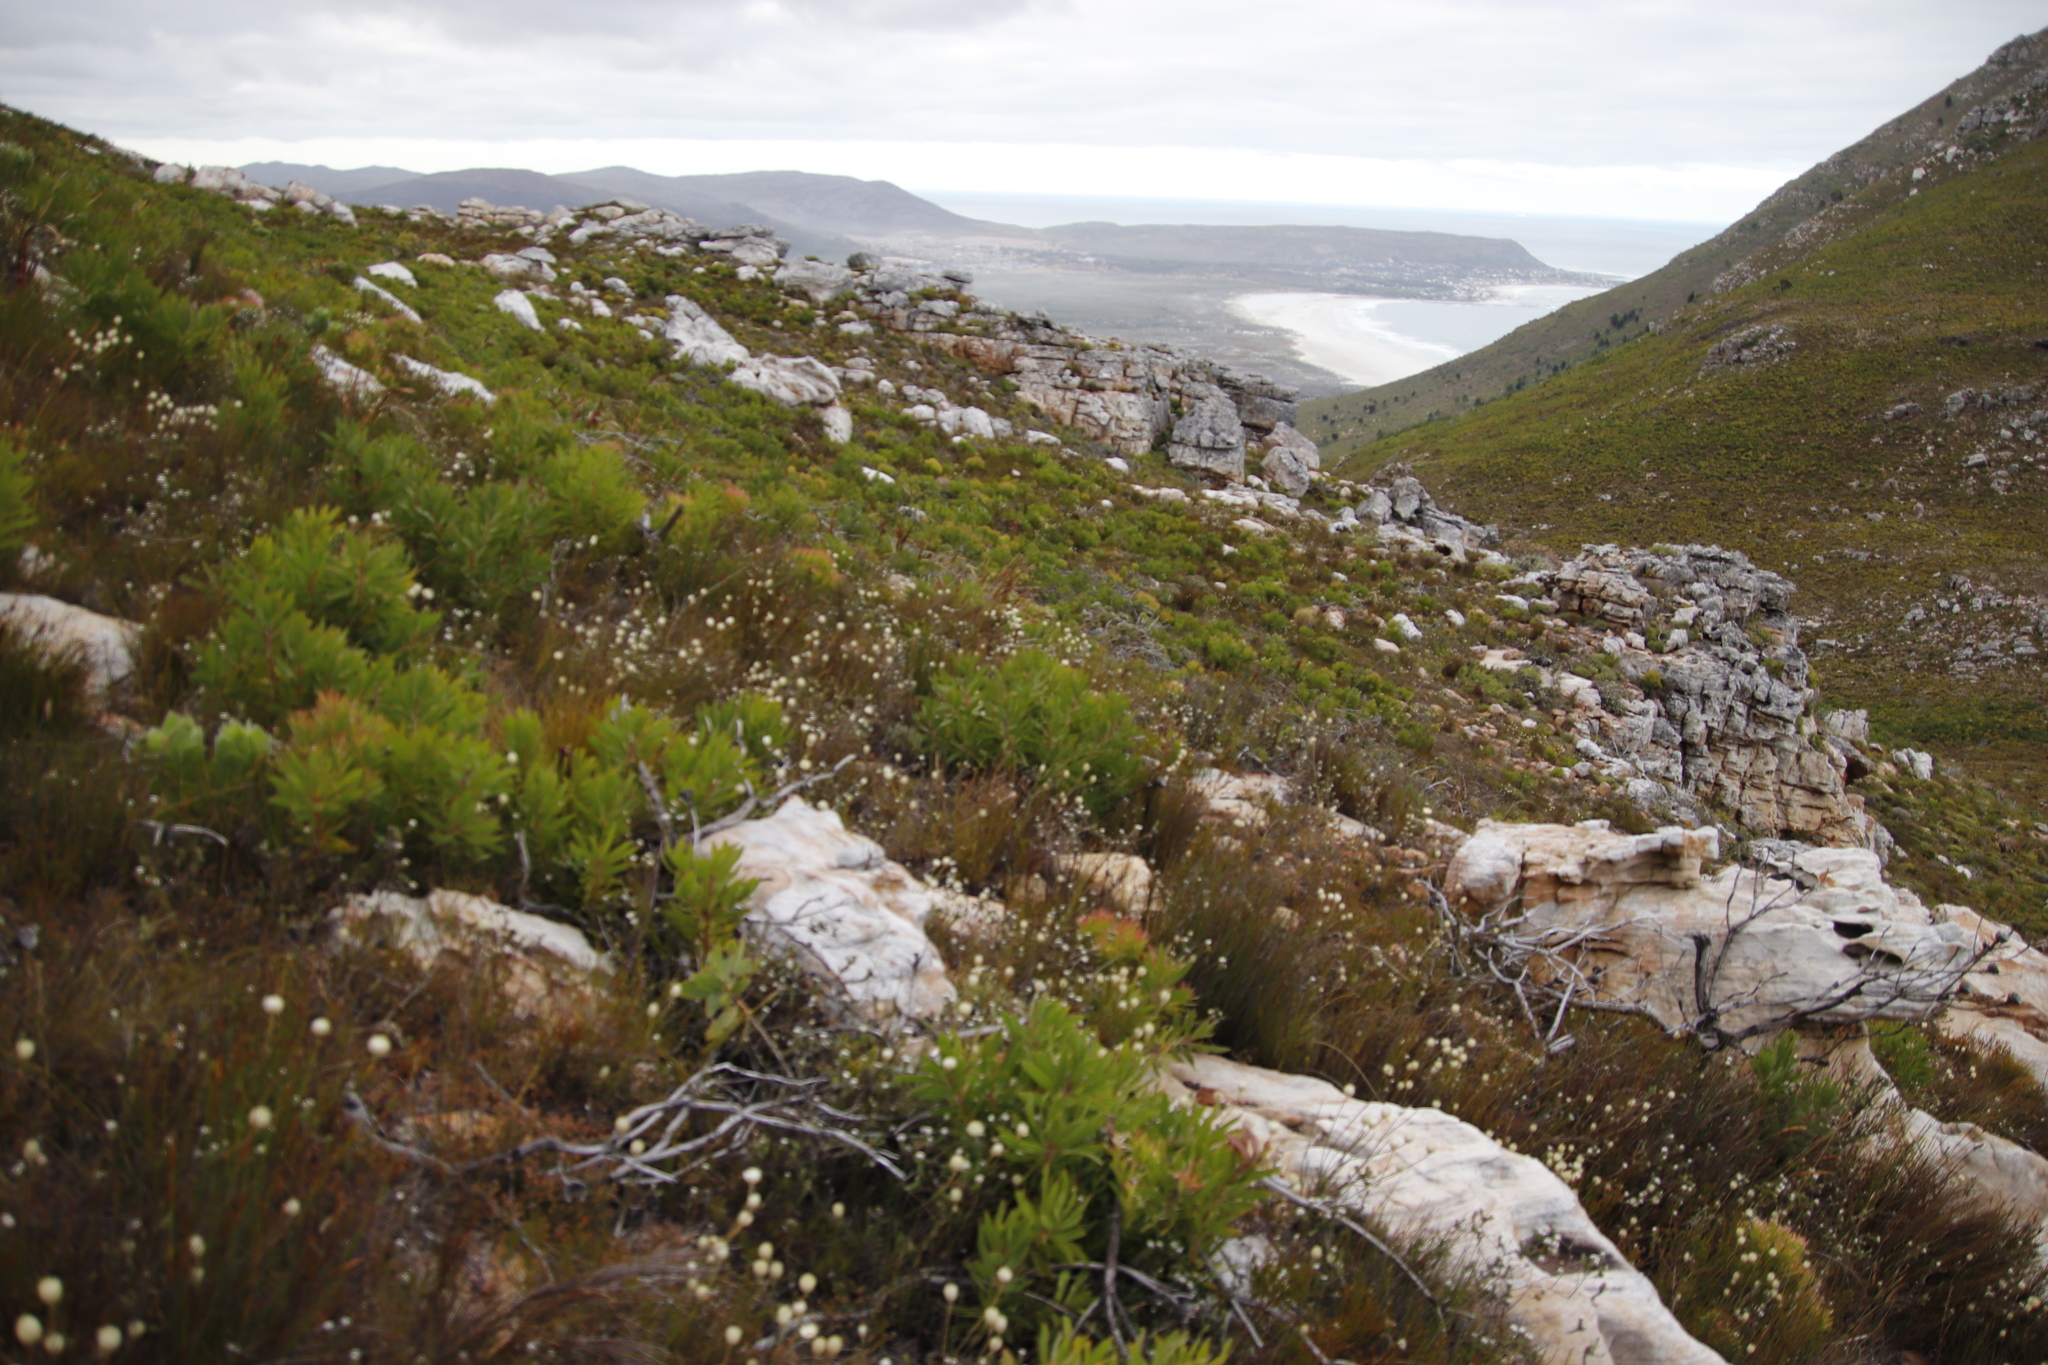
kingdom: Plantae
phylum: Tracheophyta
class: Magnoliopsida
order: Asterales
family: Asteraceae
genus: Edmondia
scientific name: Edmondia sesamoides
